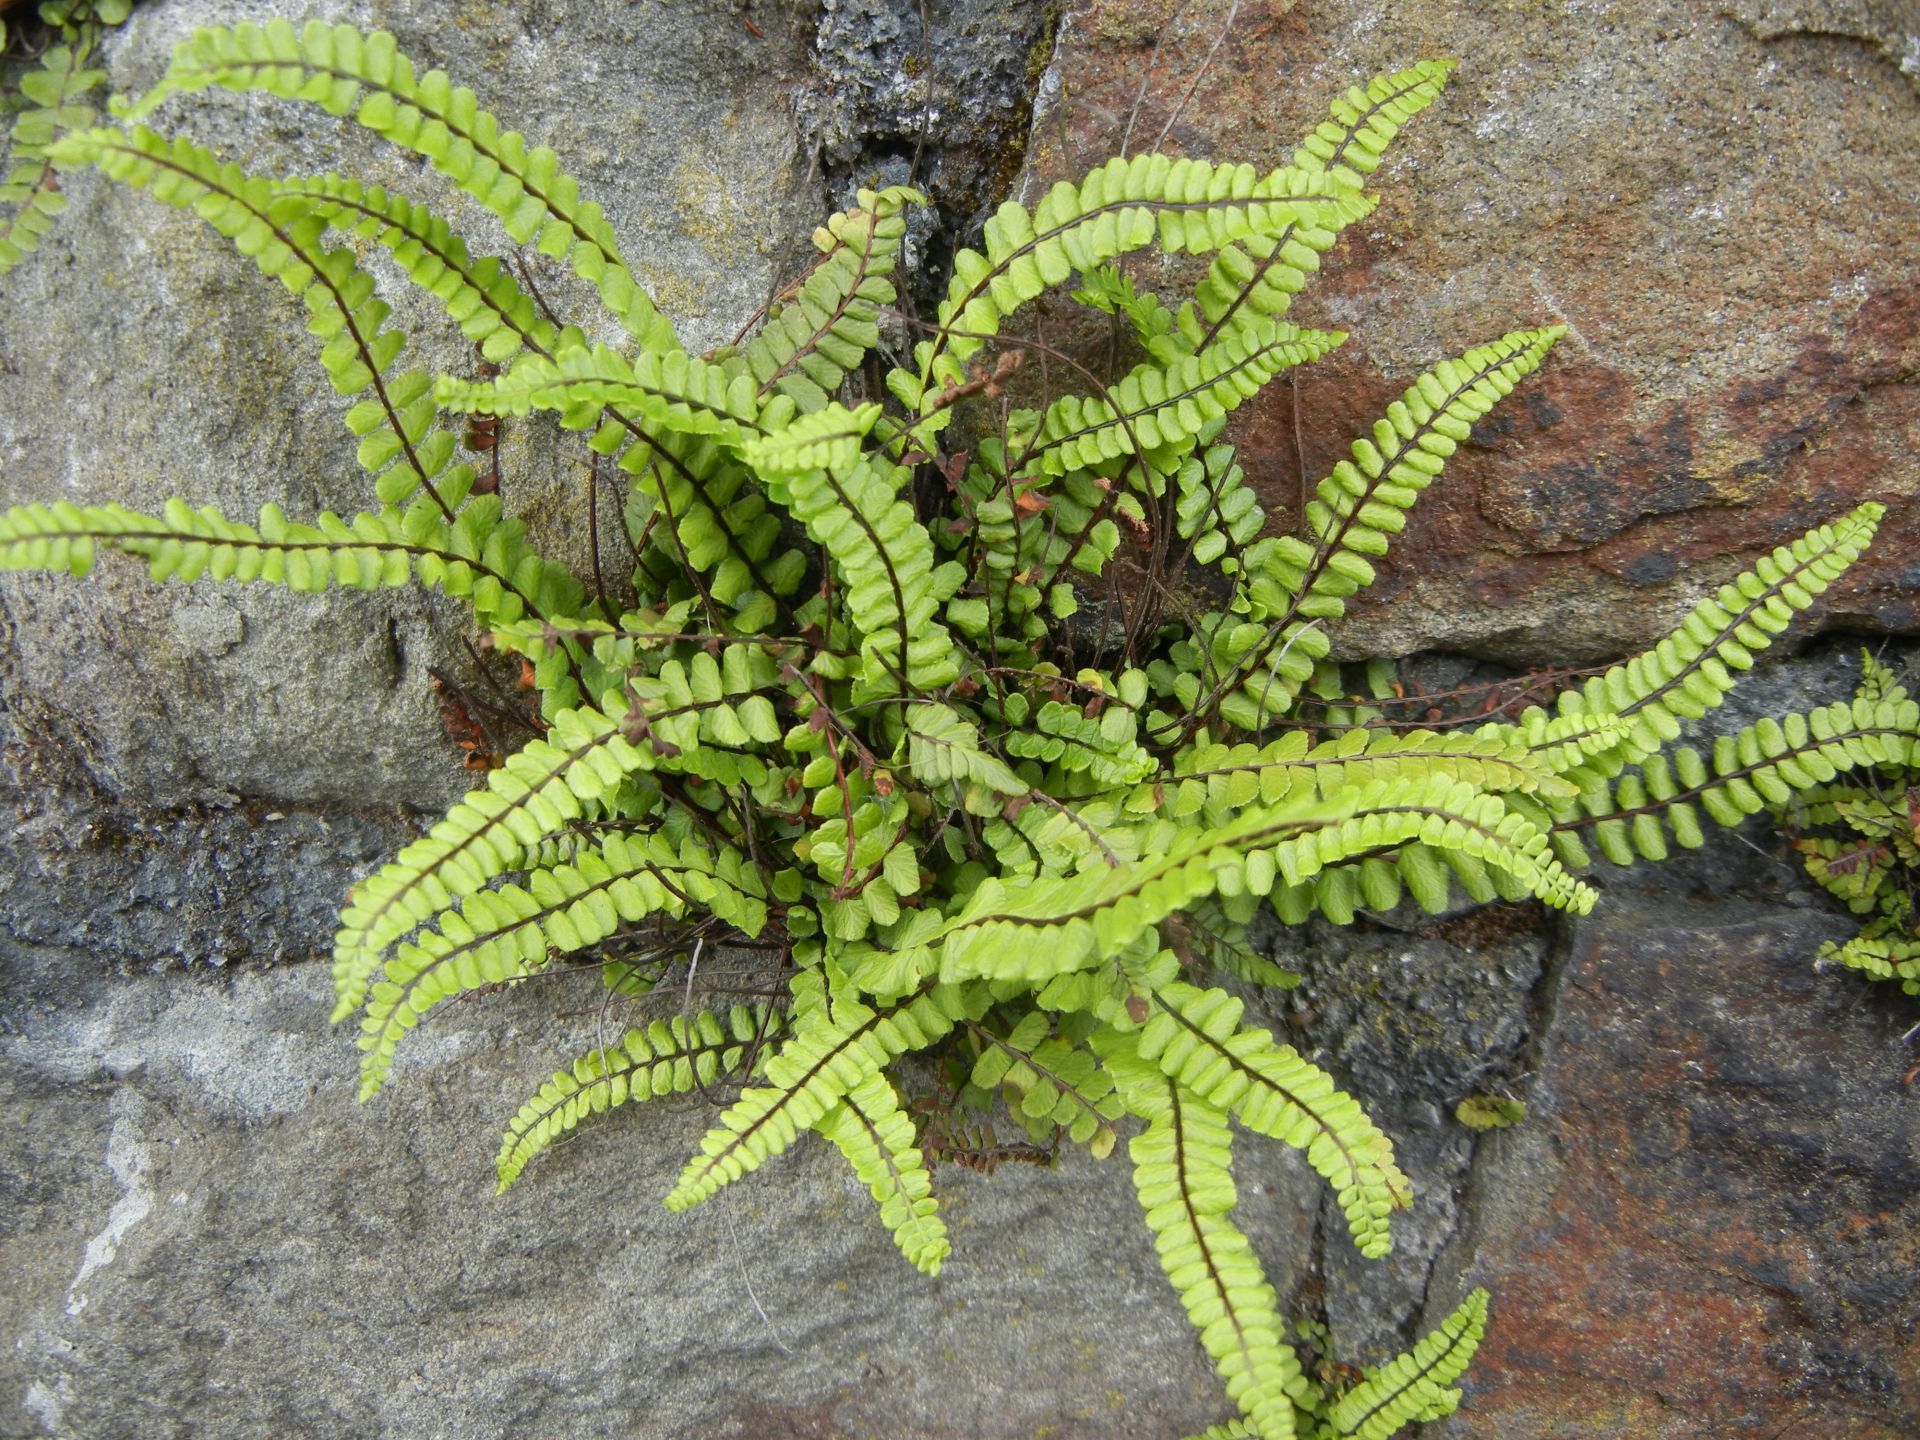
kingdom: Plantae
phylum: Tracheophyta
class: Polypodiopsida
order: Polypodiales
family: Aspleniaceae
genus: Asplenium
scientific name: Asplenium trichomanes
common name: Maidenhair spleenwort
